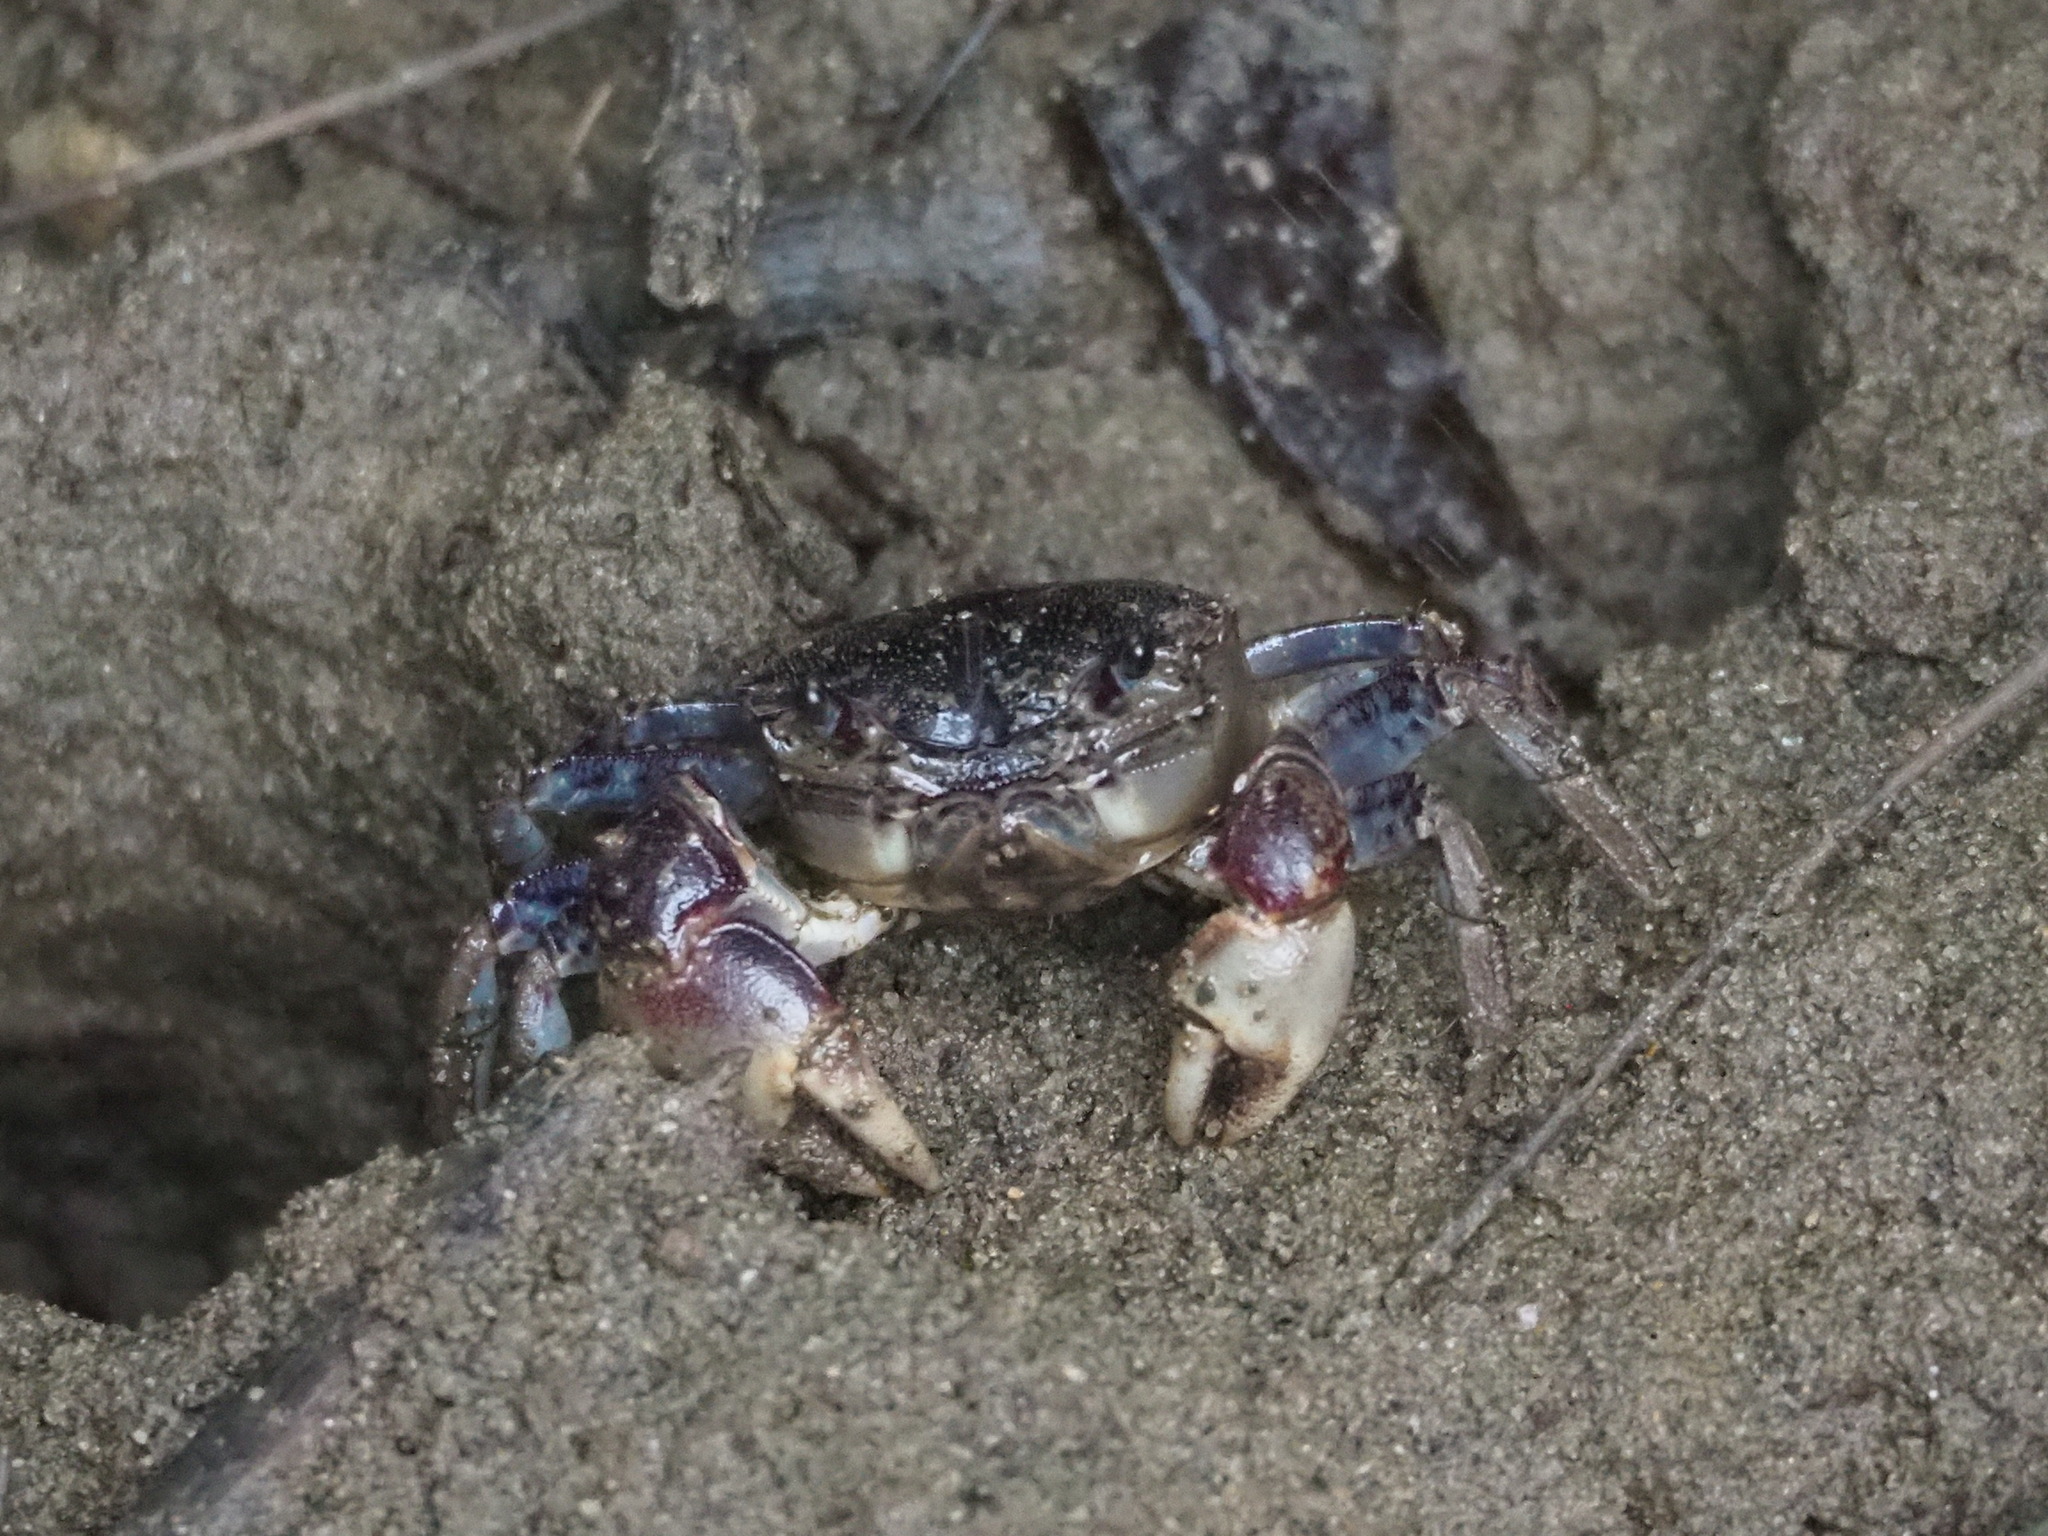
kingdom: Animalia
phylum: Arthropoda
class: Malacostraca
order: Decapoda
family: Varunidae
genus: Pseudohelice
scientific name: Pseudohelice subquadrata
